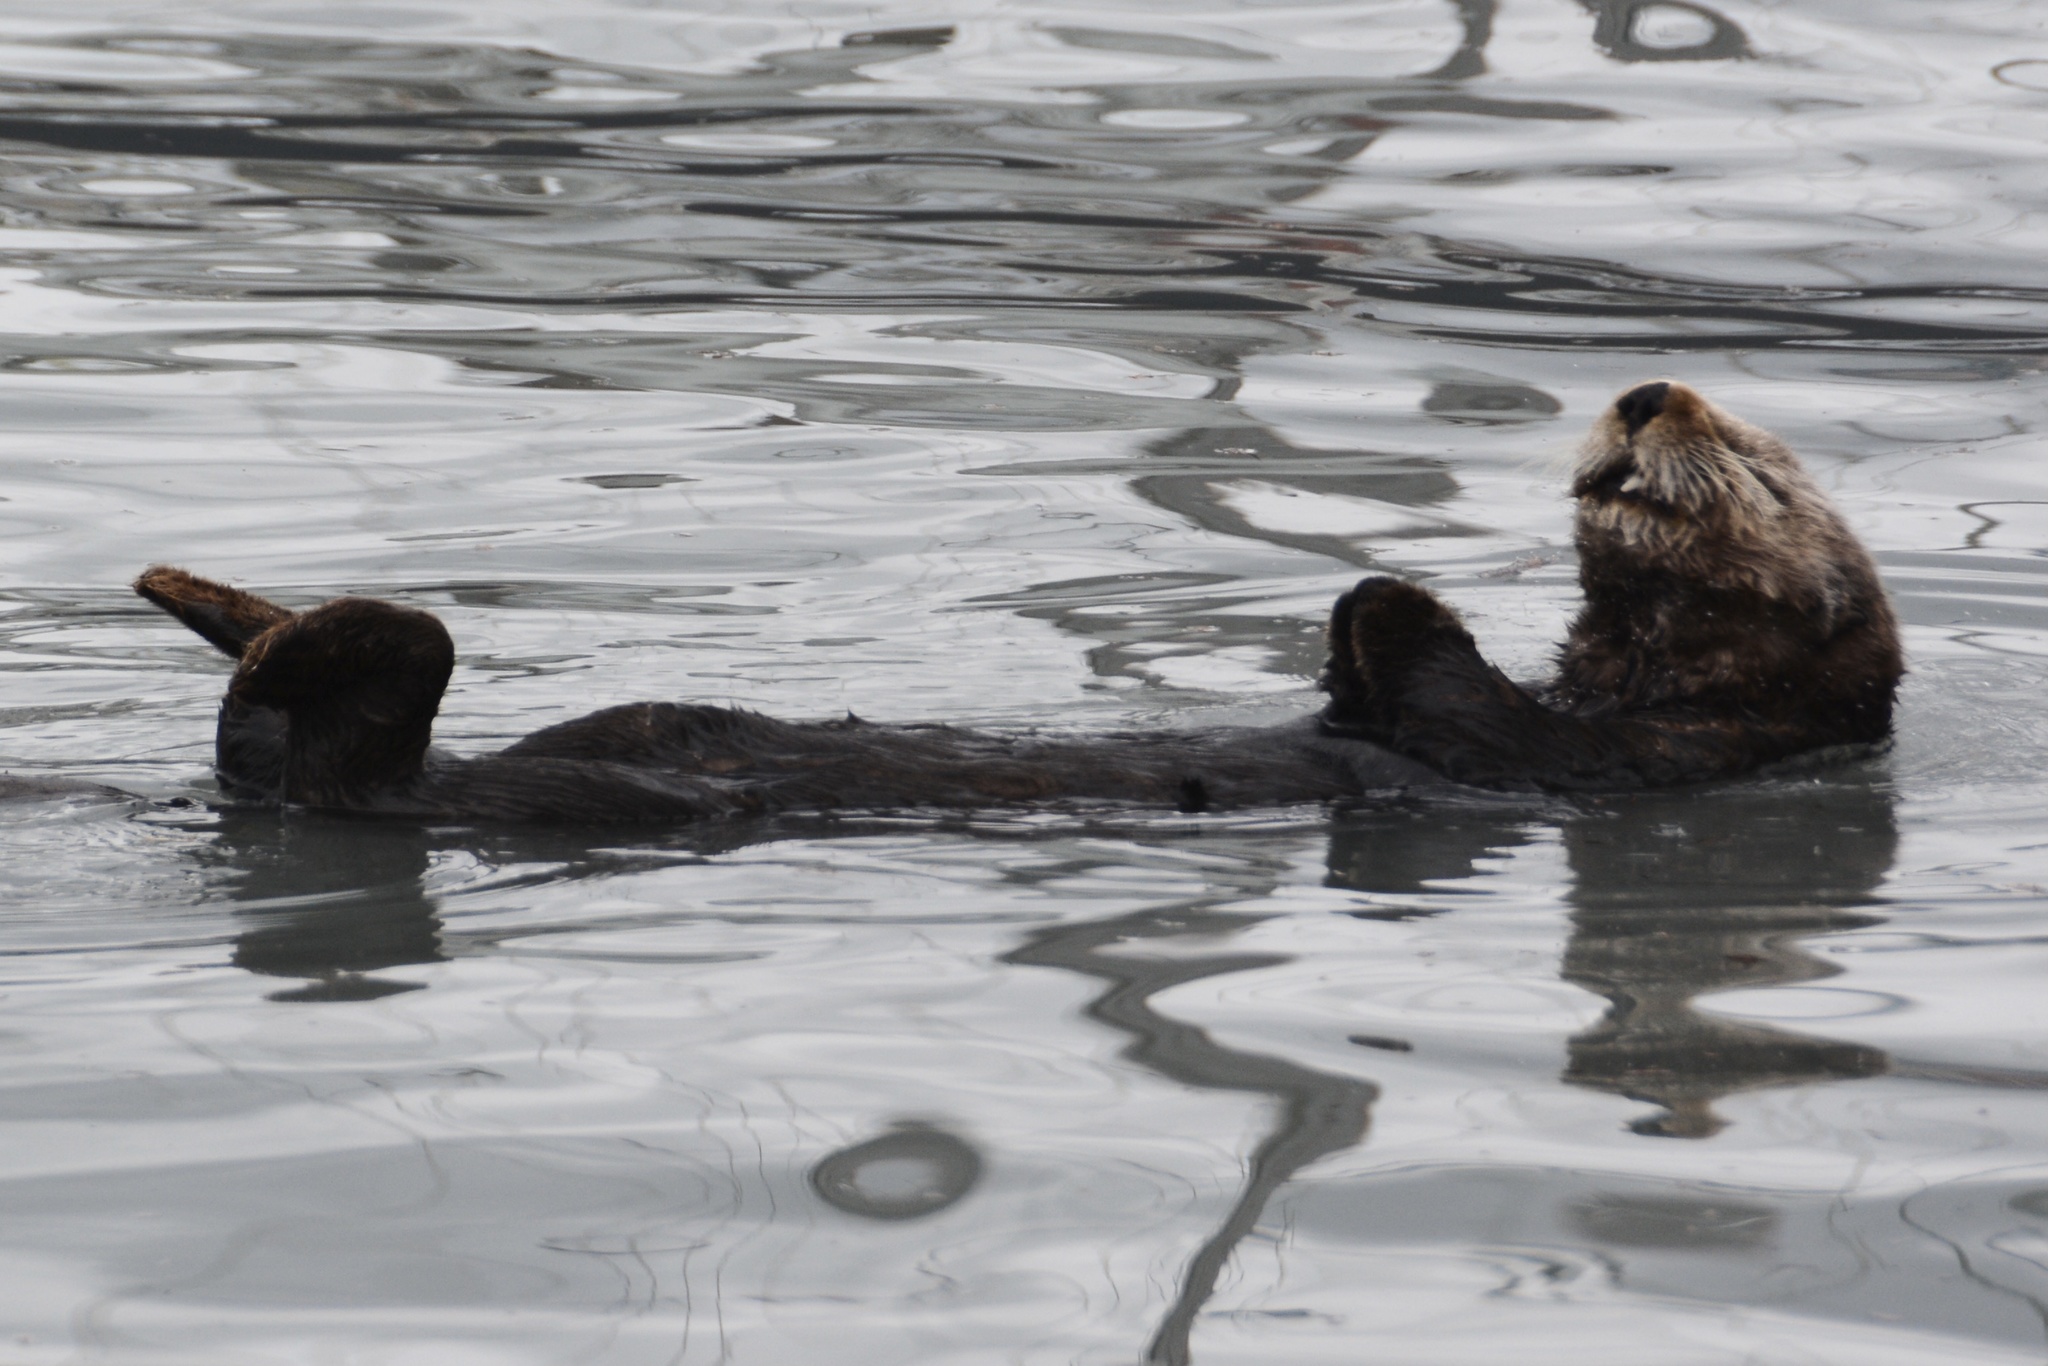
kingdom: Animalia
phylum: Chordata
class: Mammalia
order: Carnivora
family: Mustelidae
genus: Enhydra
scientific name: Enhydra lutris
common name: Sea otter
